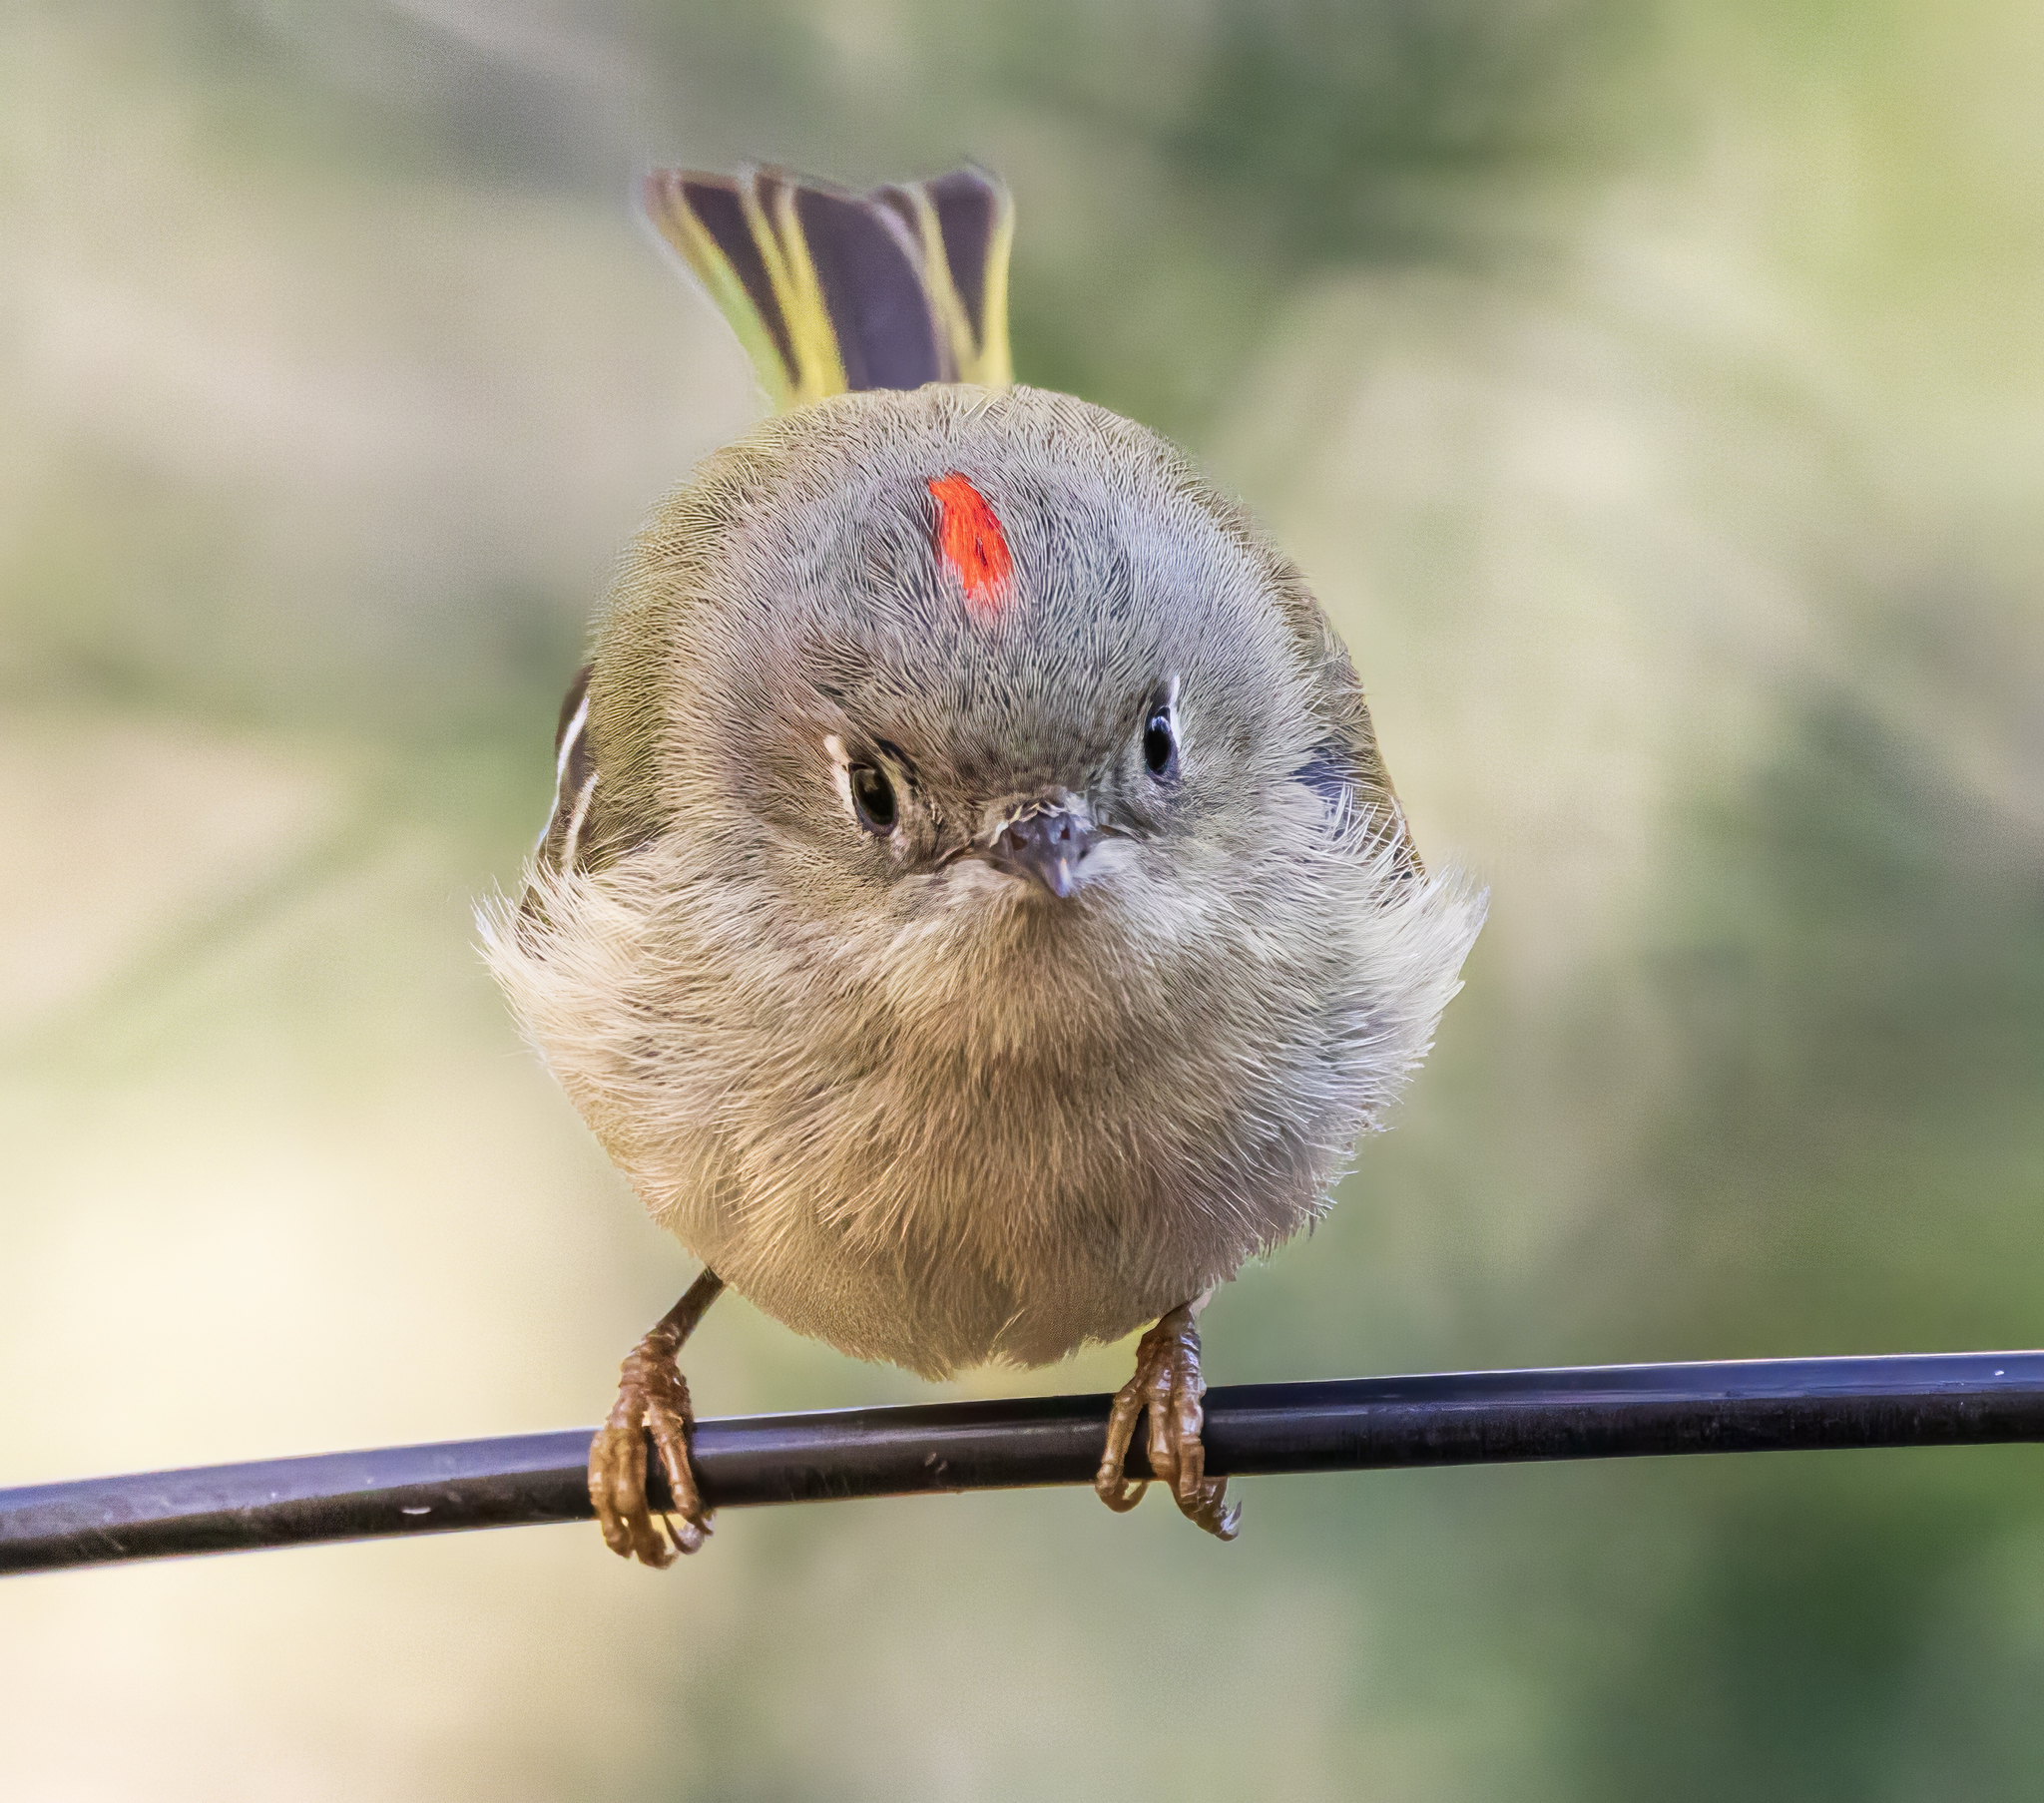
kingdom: Animalia
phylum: Chordata
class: Aves
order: Passeriformes
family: Regulidae
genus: Regulus
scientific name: Regulus calendula
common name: Ruby-crowned kinglet
